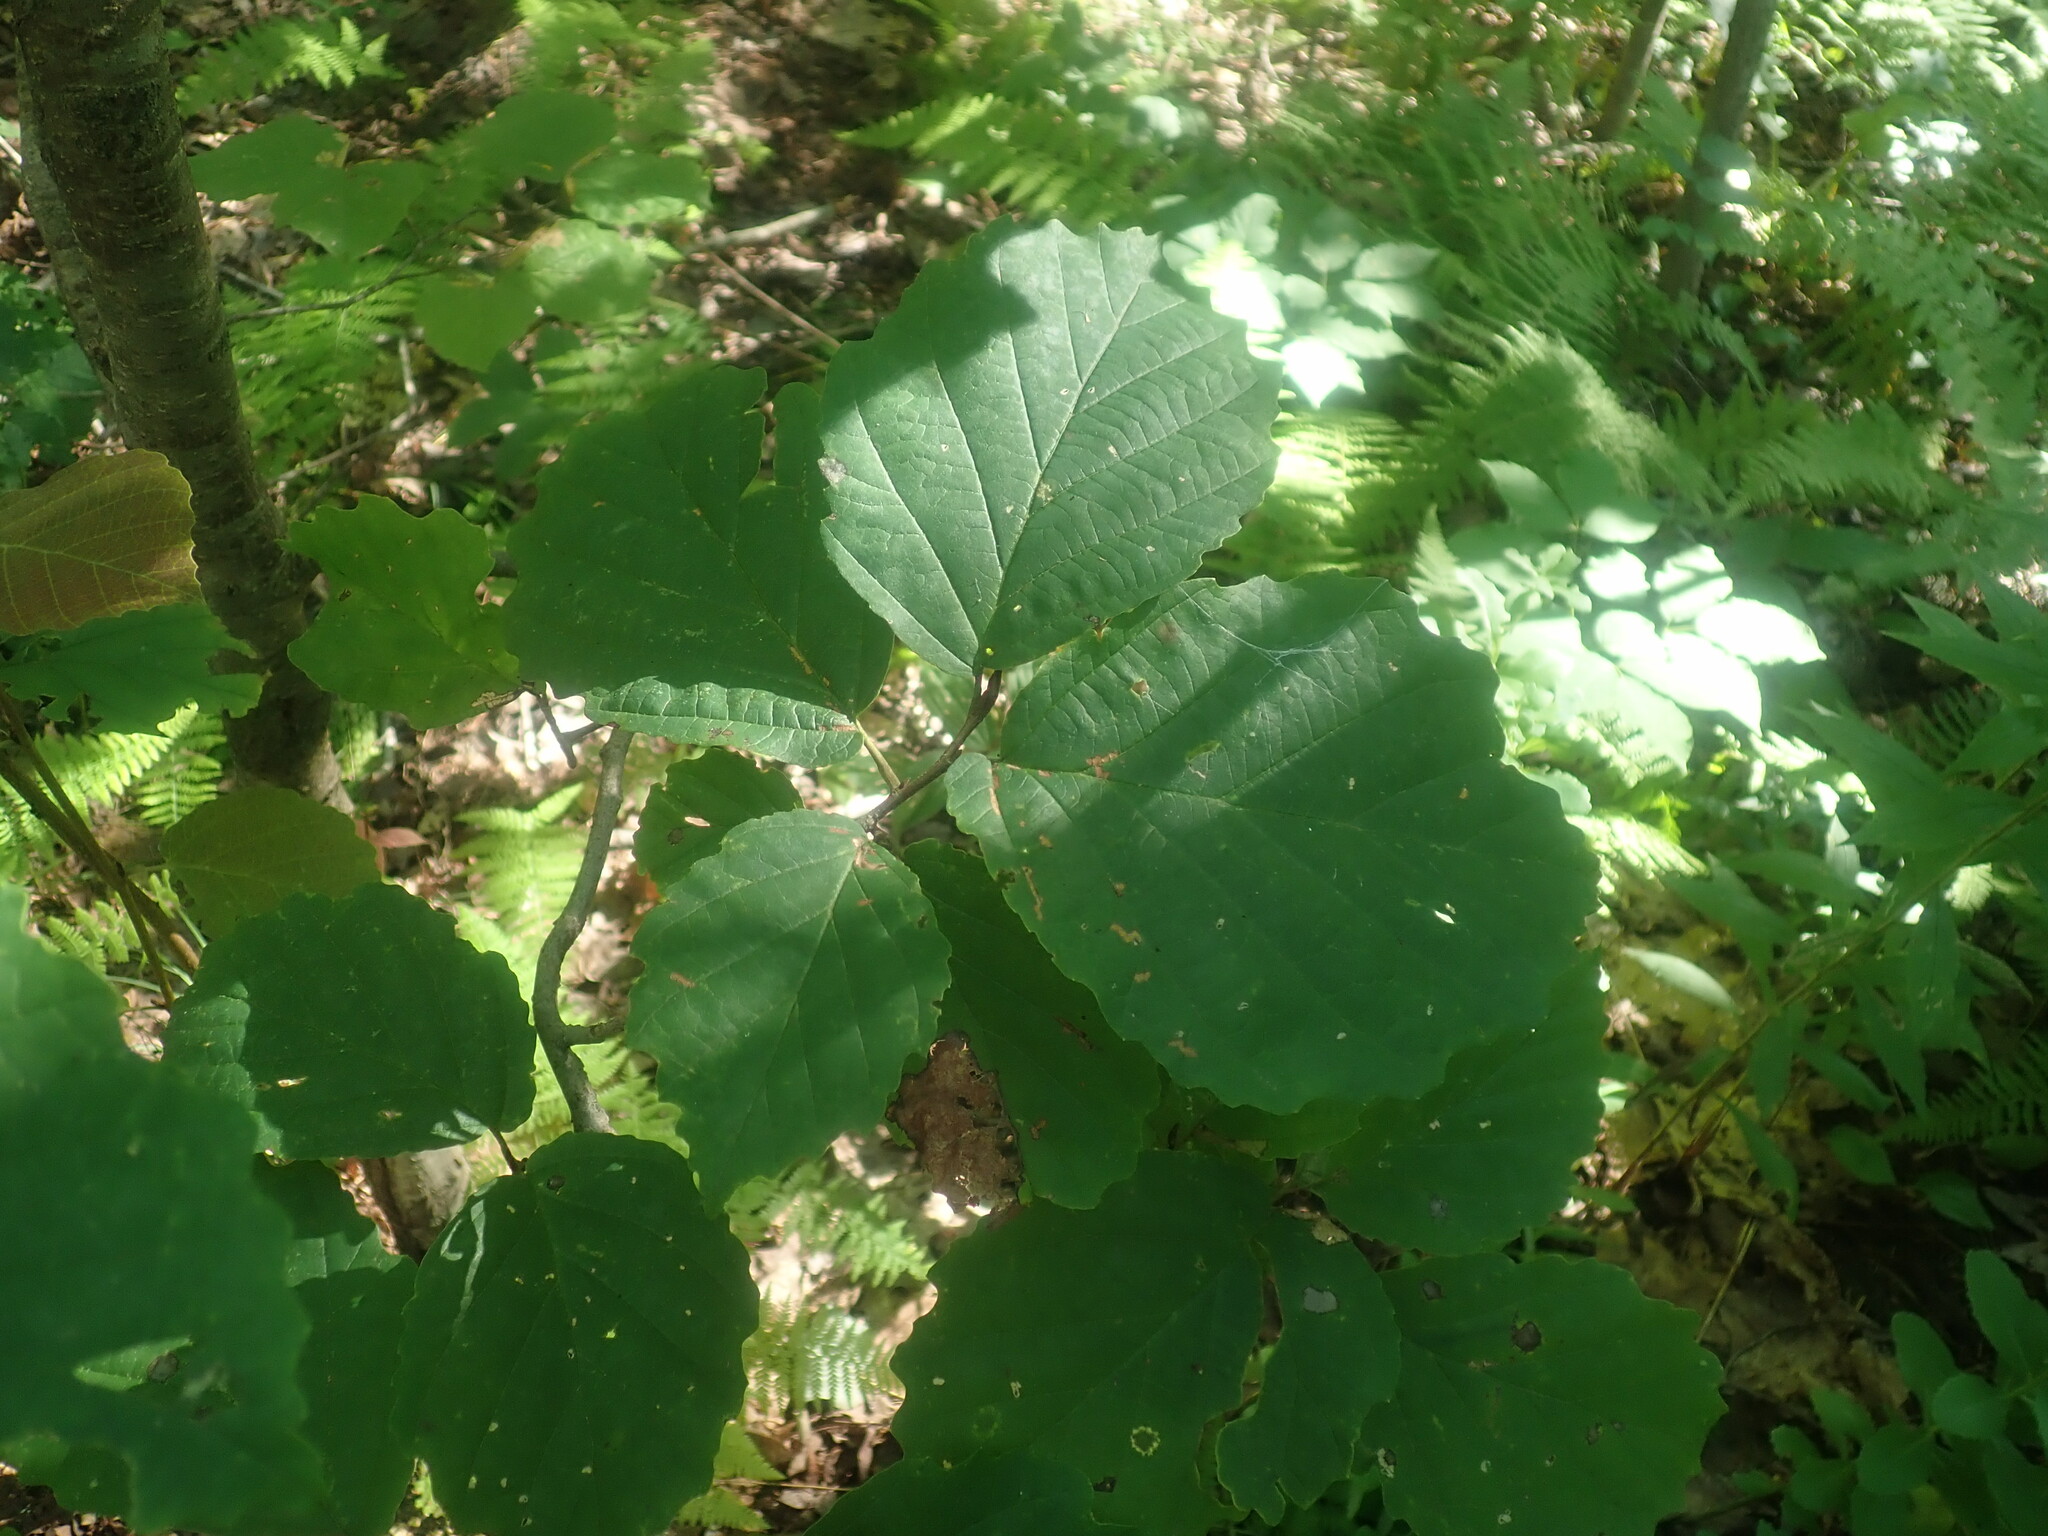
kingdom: Plantae
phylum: Tracheophyta
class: Magnoliopsida
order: Saxifragales
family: Hamamelidaceae
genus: Hamamelis
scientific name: Hamamelis virginiana
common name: Witch-hazel
